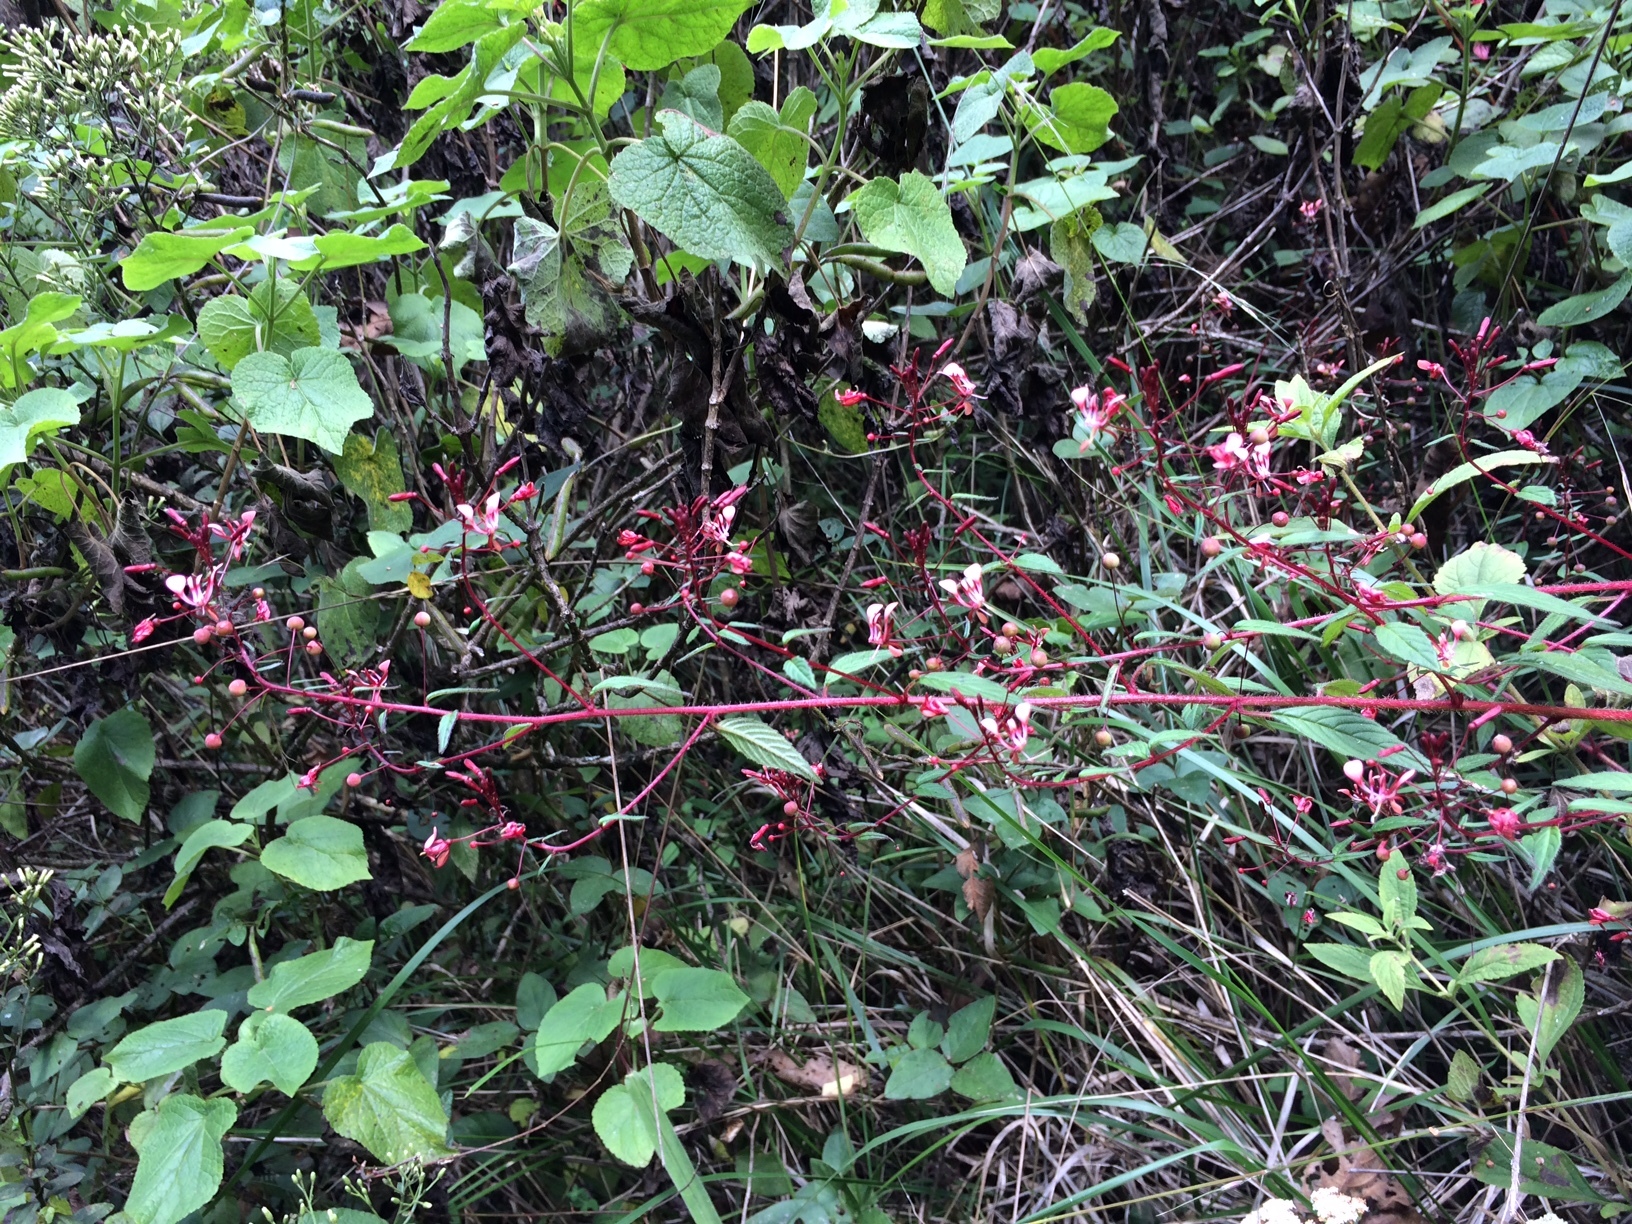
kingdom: Plantae
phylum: Tracheophyta
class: Magnoliopsida
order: Myrtales
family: Onagraceae
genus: Lopezia
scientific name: Lopezia racemosa
